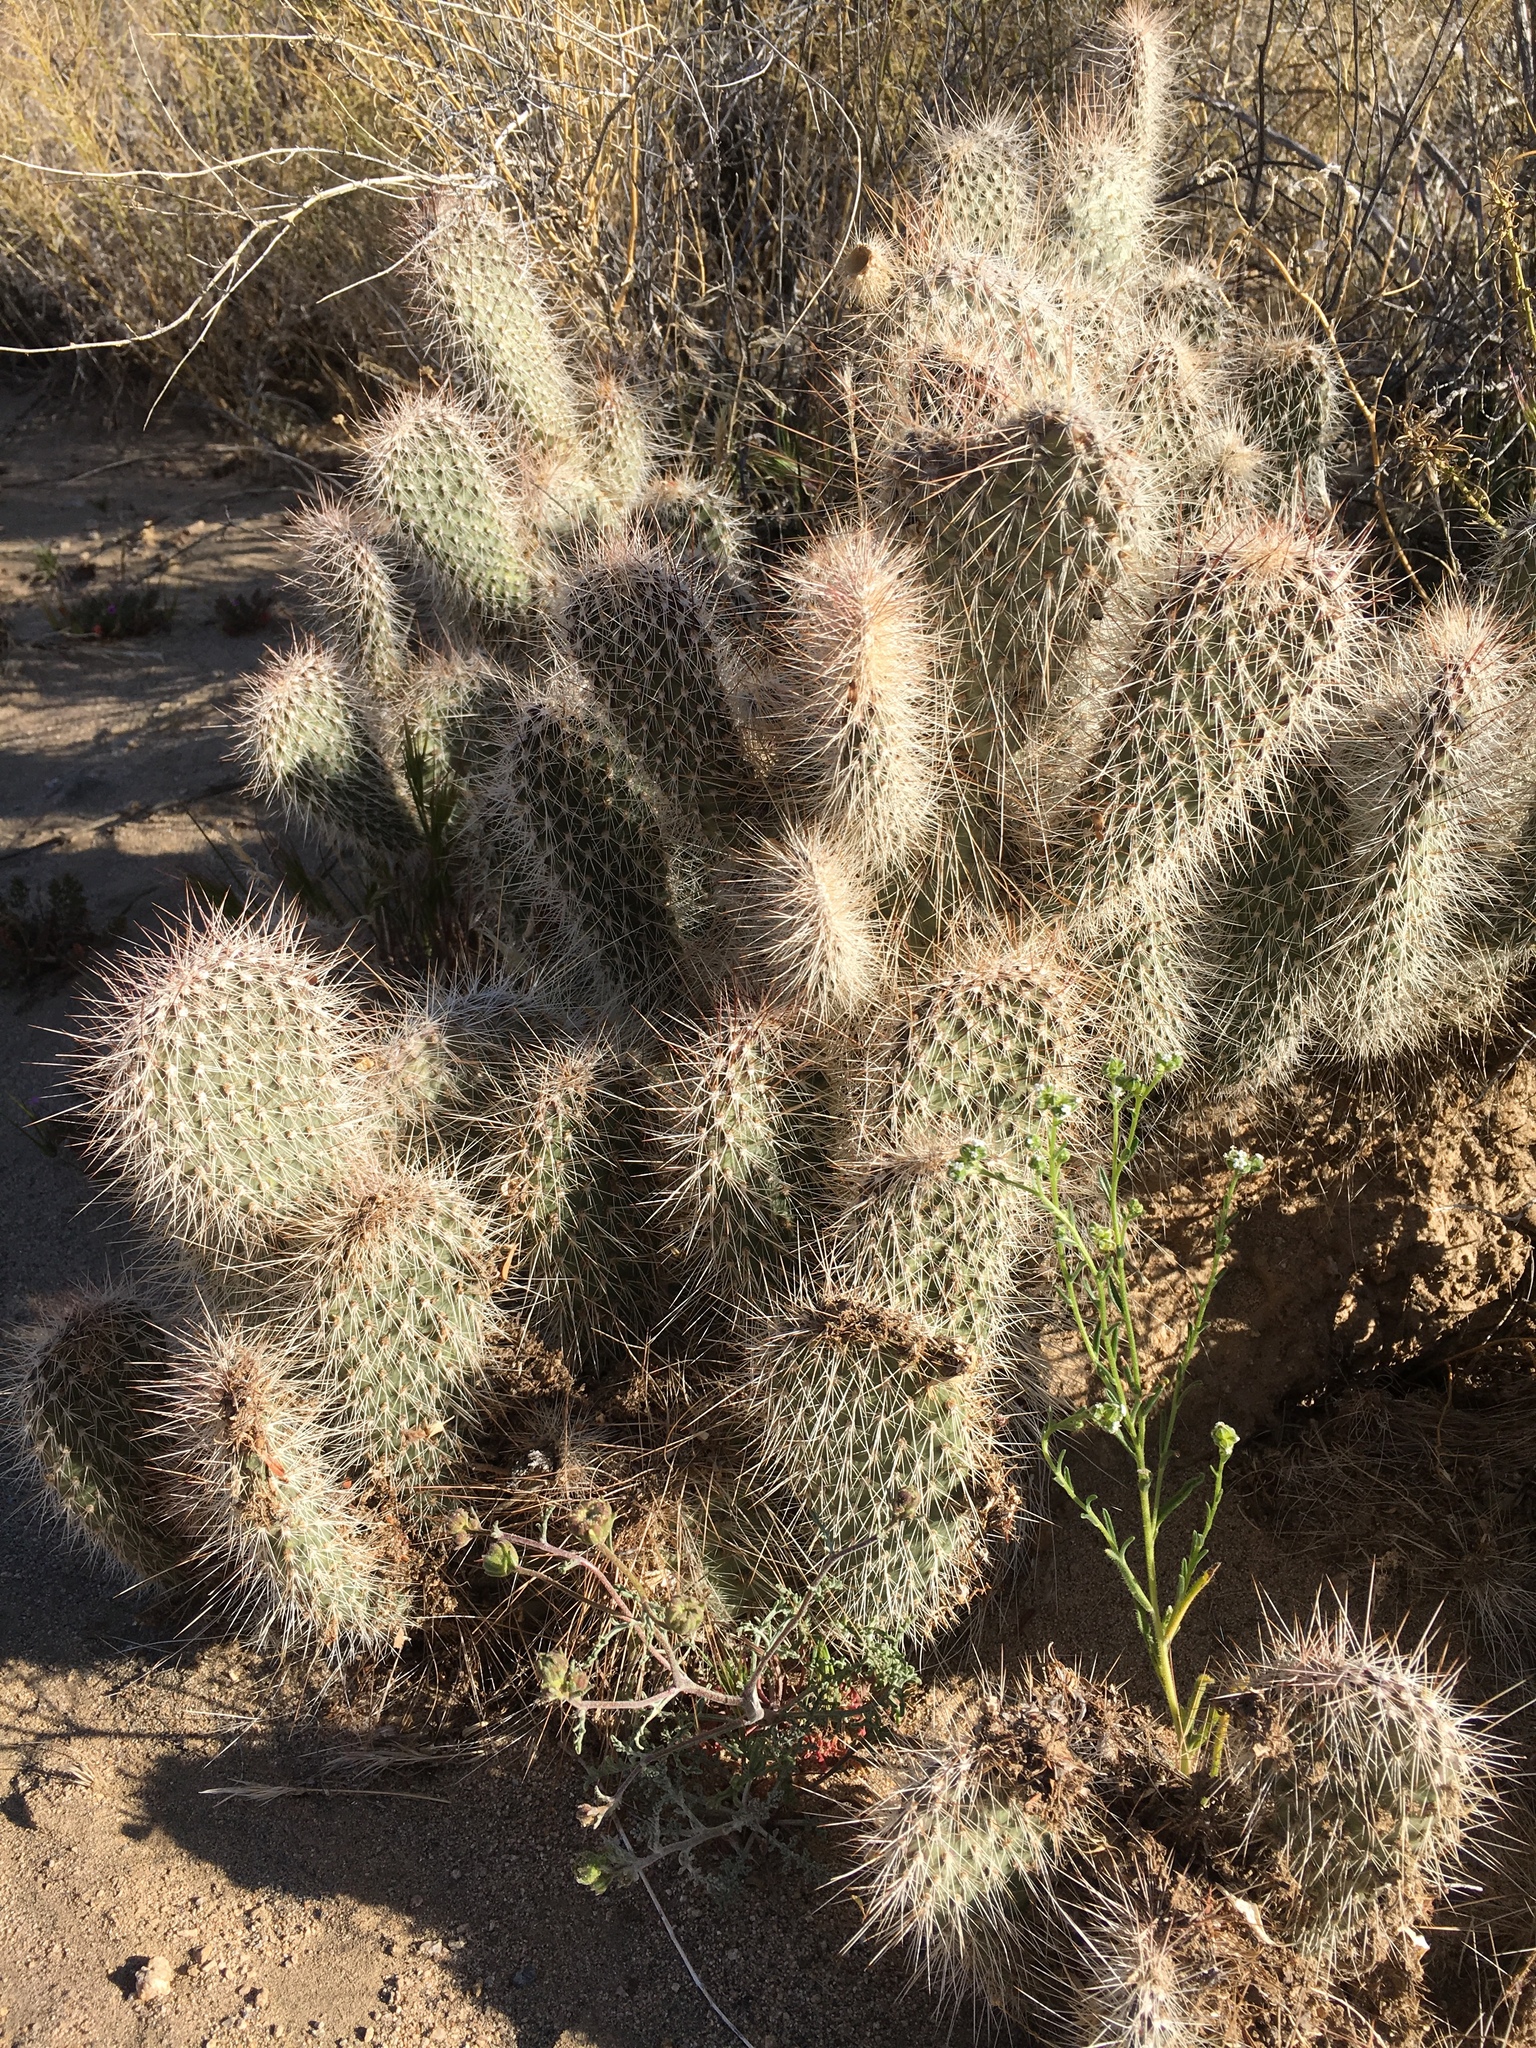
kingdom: Plantae
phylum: Tracheophyta
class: Magnoliopsida
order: Caryophyllales
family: Cactaceae
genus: Opuntia
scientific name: Opuntia polyacantha
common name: Plains prickly-pear
